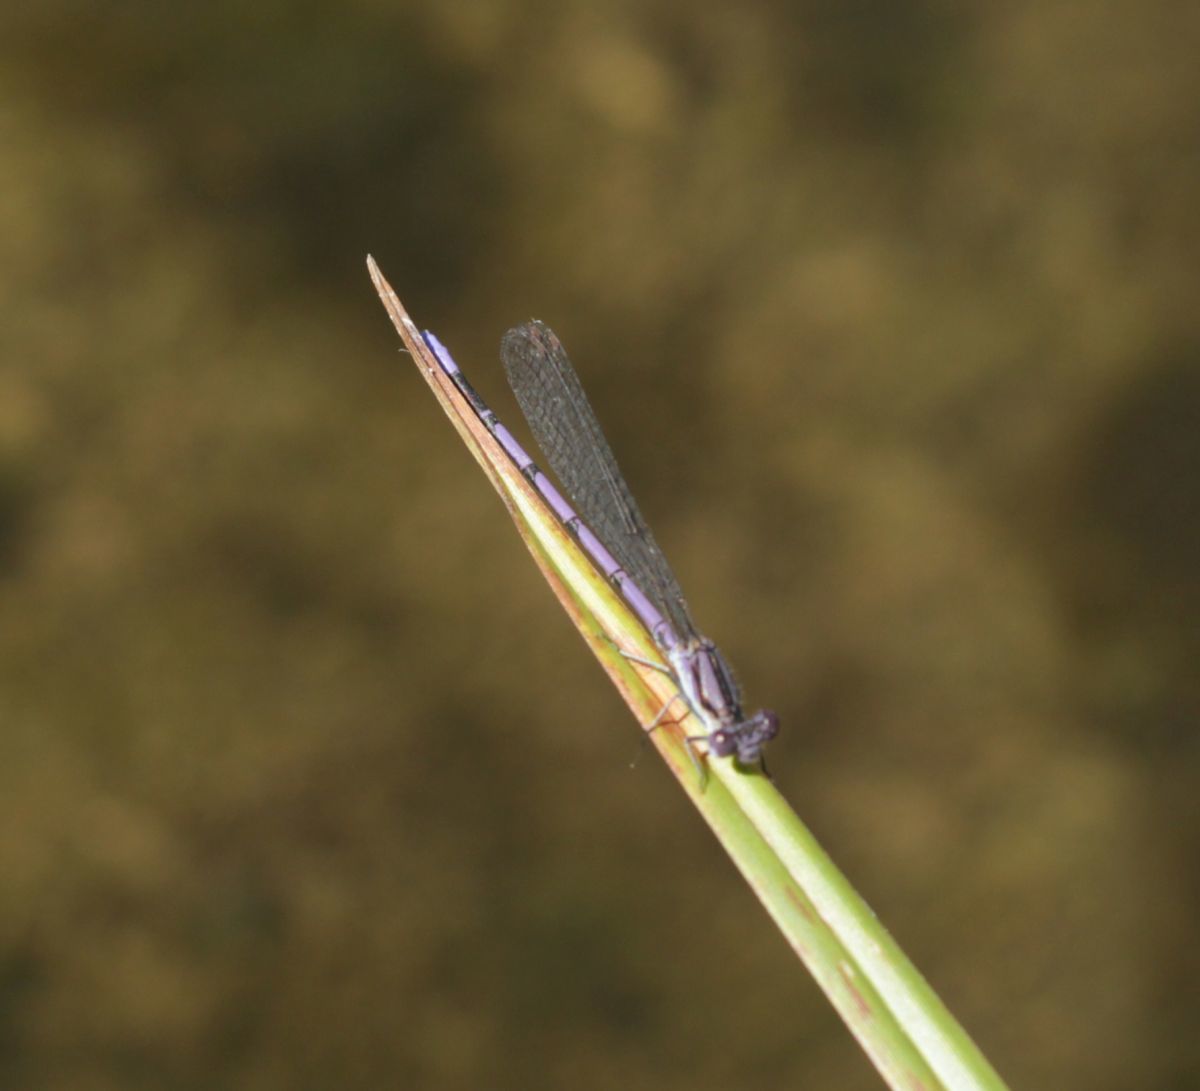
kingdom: Animalia
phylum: Arthropoda
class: Insecta
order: Odonata
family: Coenagrionidae
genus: Argia
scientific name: Argia fumipennis
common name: Variable dancer
